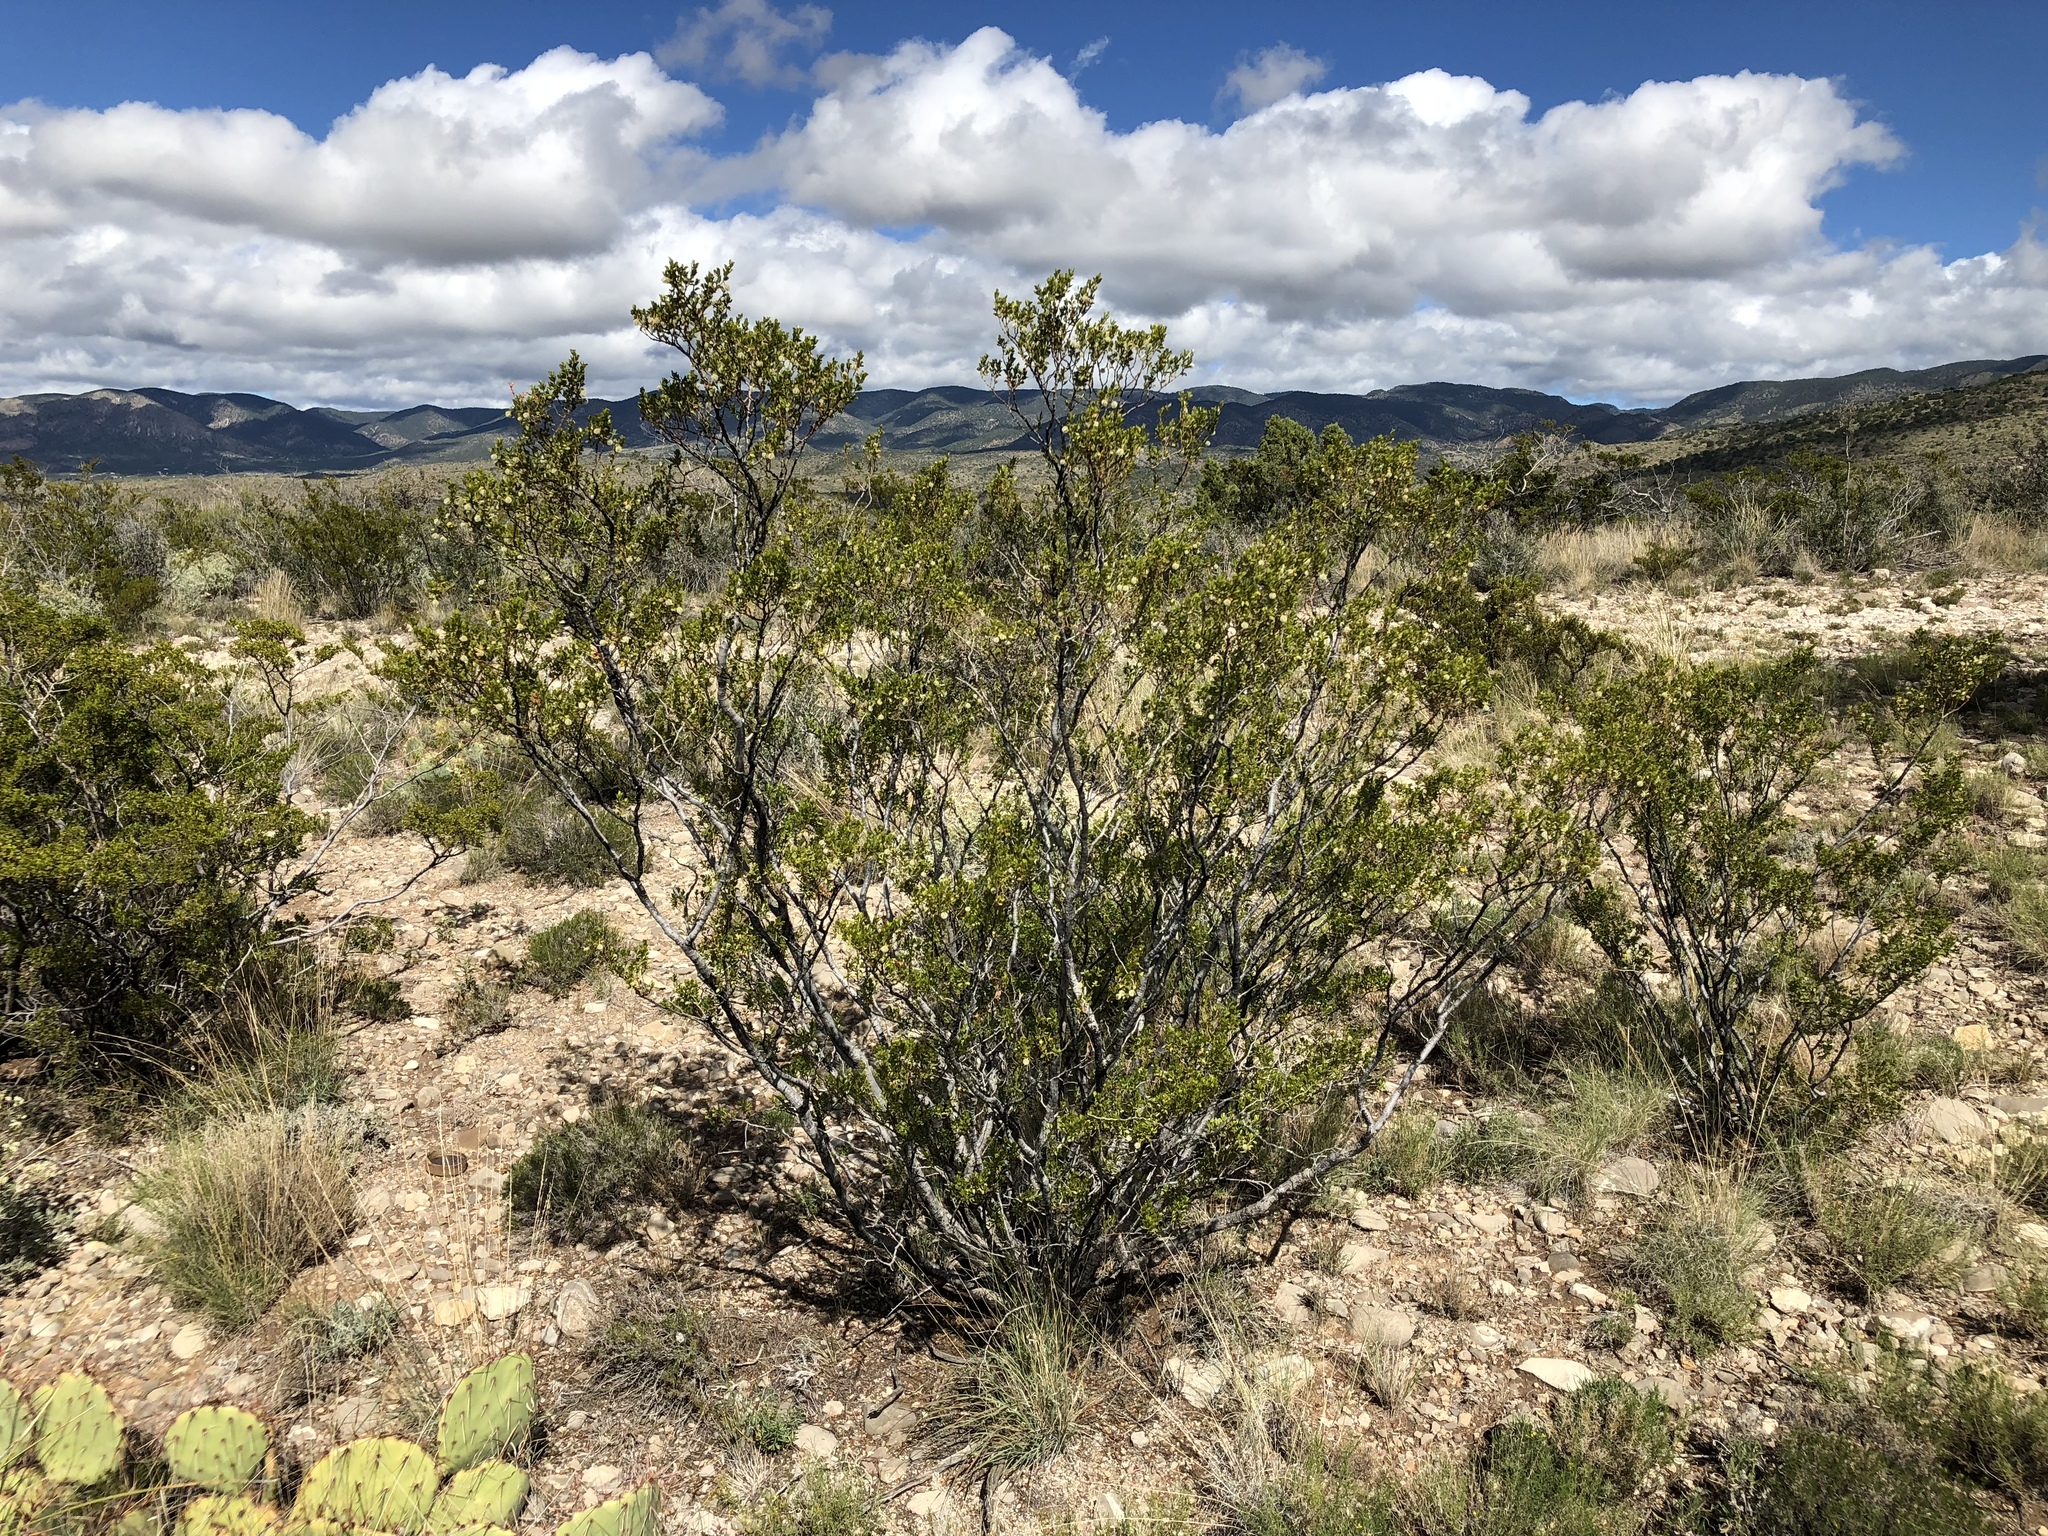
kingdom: Plantae
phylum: Tracheophyta
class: Magnoliopsida
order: Zygophyllales
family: Zygophyllaceae
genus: Larrea
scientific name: Larrea tridentata
